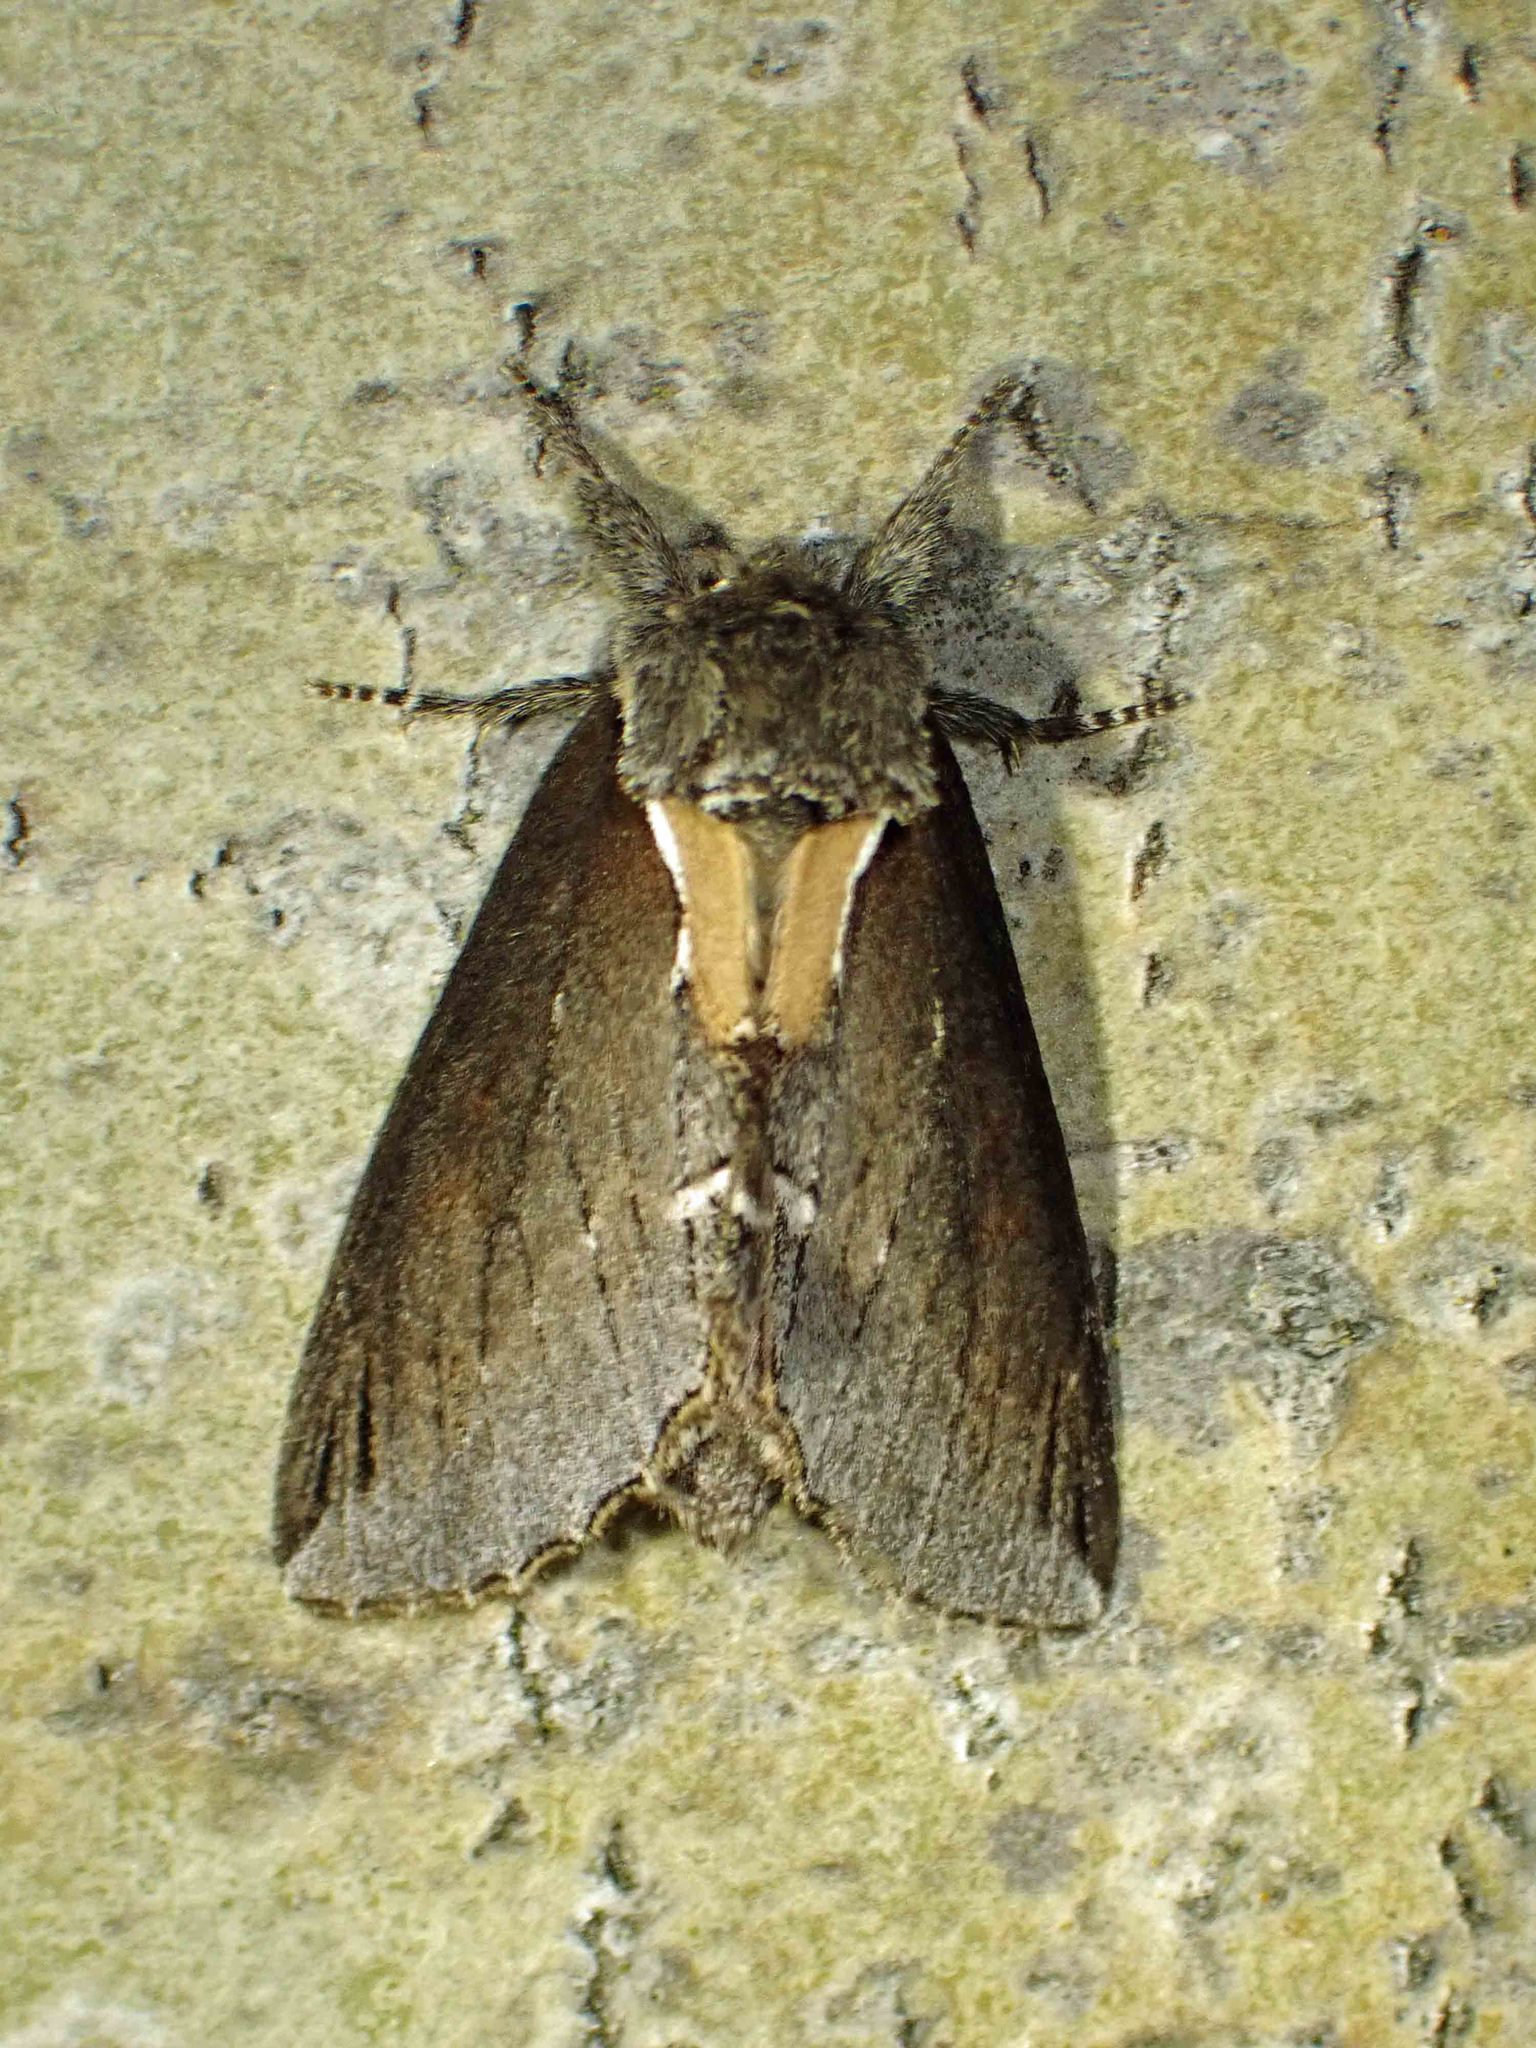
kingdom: Animalia
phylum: Arthropoda
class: Insecta
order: Lepidoptera
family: Notodontidae
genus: Pheosidea
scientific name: Pheosidea elegans
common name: Elegant prominent
